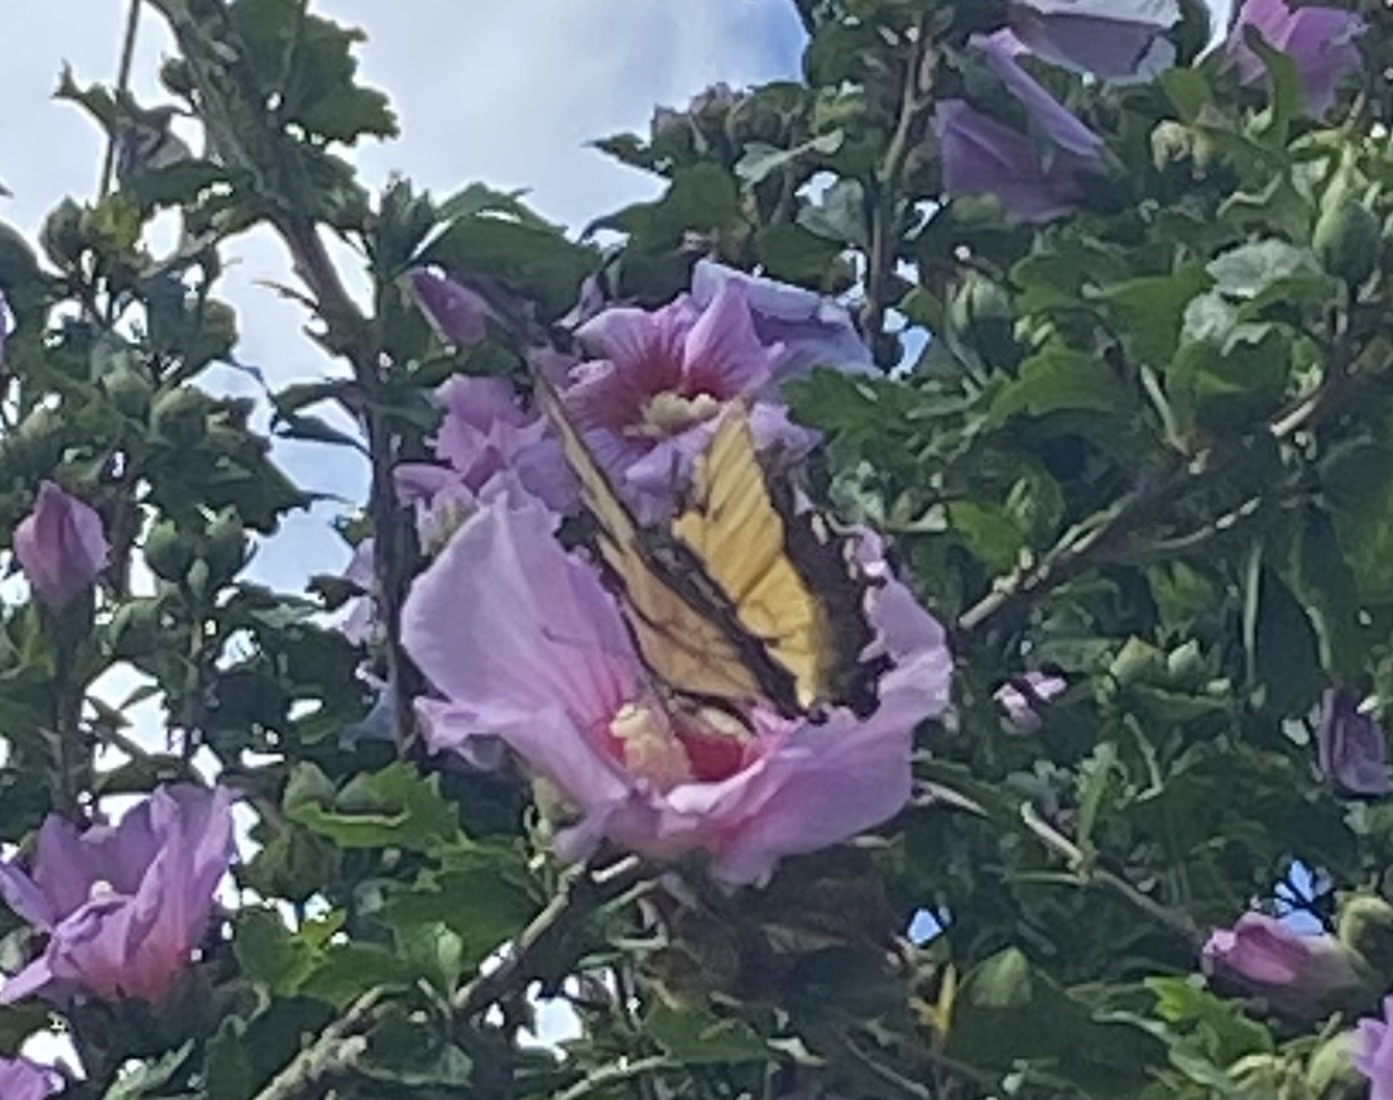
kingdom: Animalia
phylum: Arthropoda
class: Insecta
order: Lepidoptera
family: Papilionidae
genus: Papilio
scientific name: Papilio glaucus
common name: Tiger swallowtail
